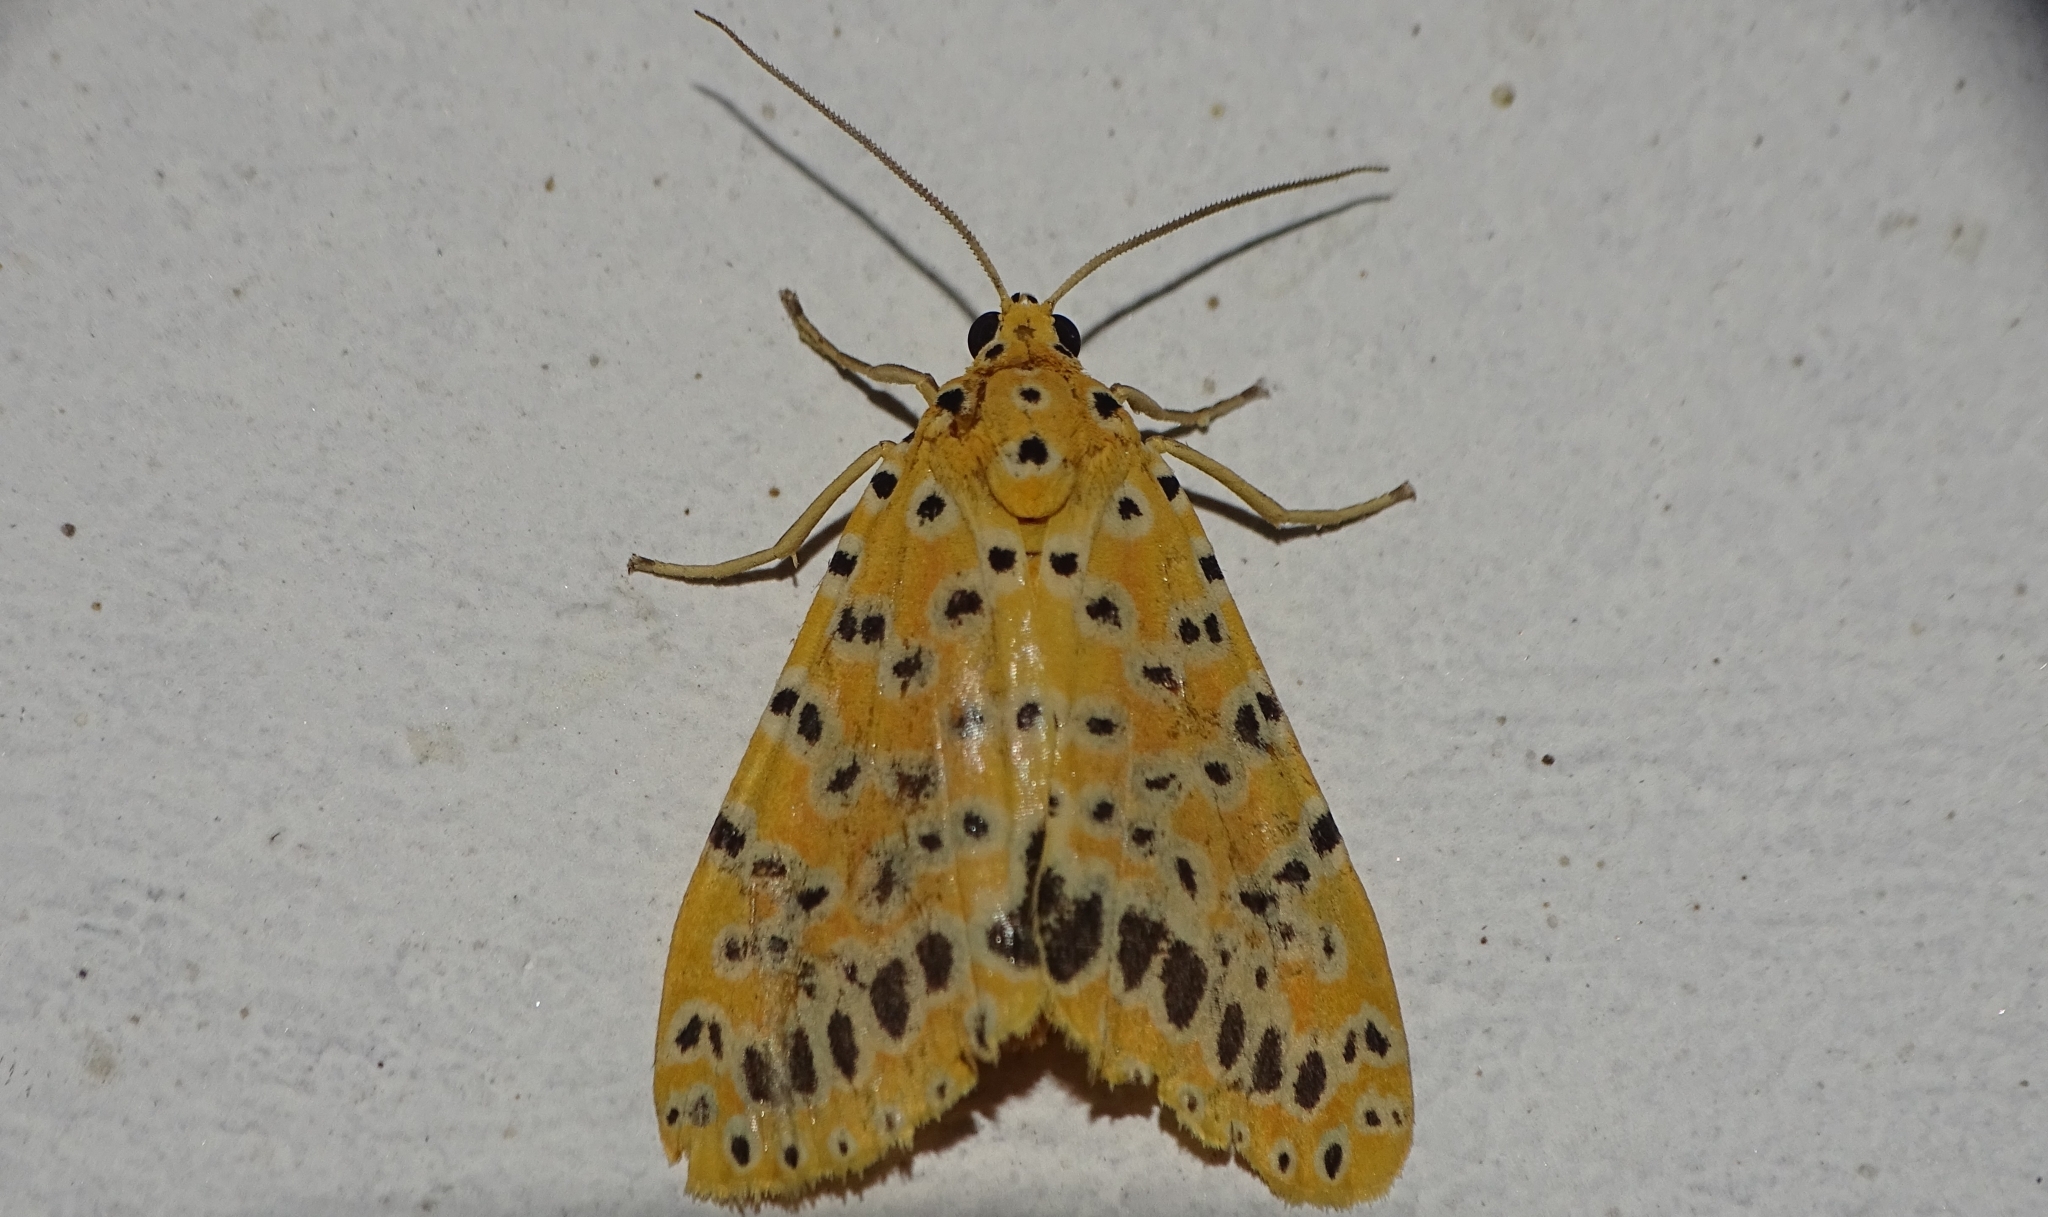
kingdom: Animalia
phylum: Arthropoda
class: Insecta
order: Lepidoptera
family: Erebidae
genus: Argina
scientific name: Argina astrea
